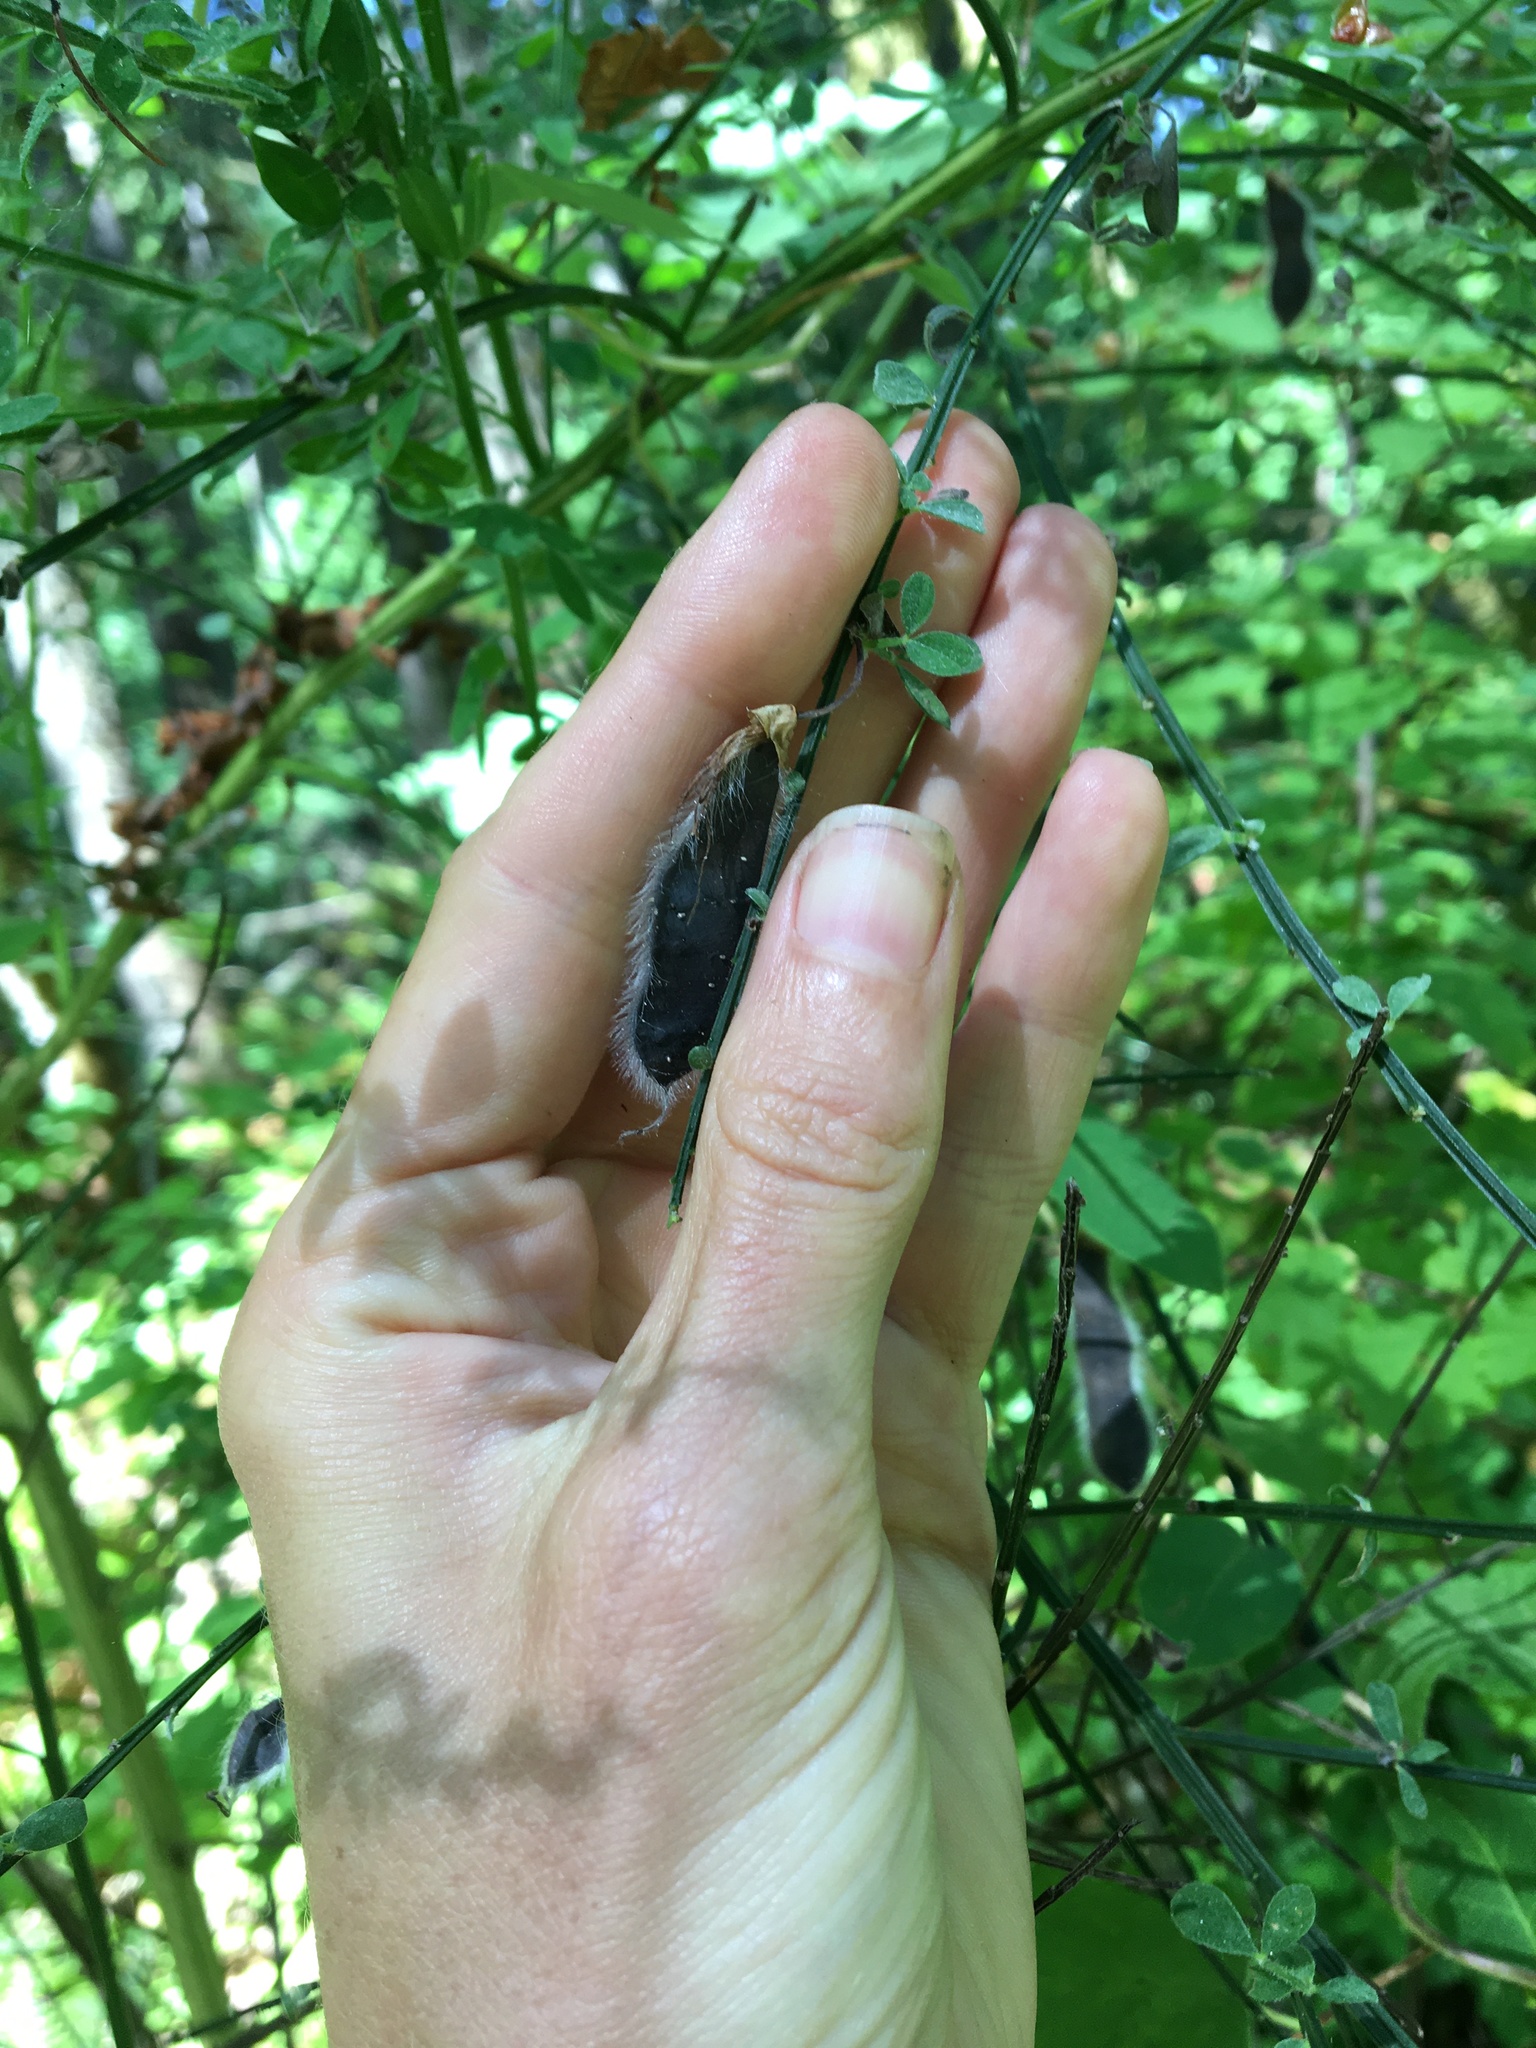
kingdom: Plantae
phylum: Tracheophyta
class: Magnoliopsida
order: Fabales
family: Fabaceae
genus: Cytisus
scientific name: Cytisus scoparius
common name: Scotch broom
